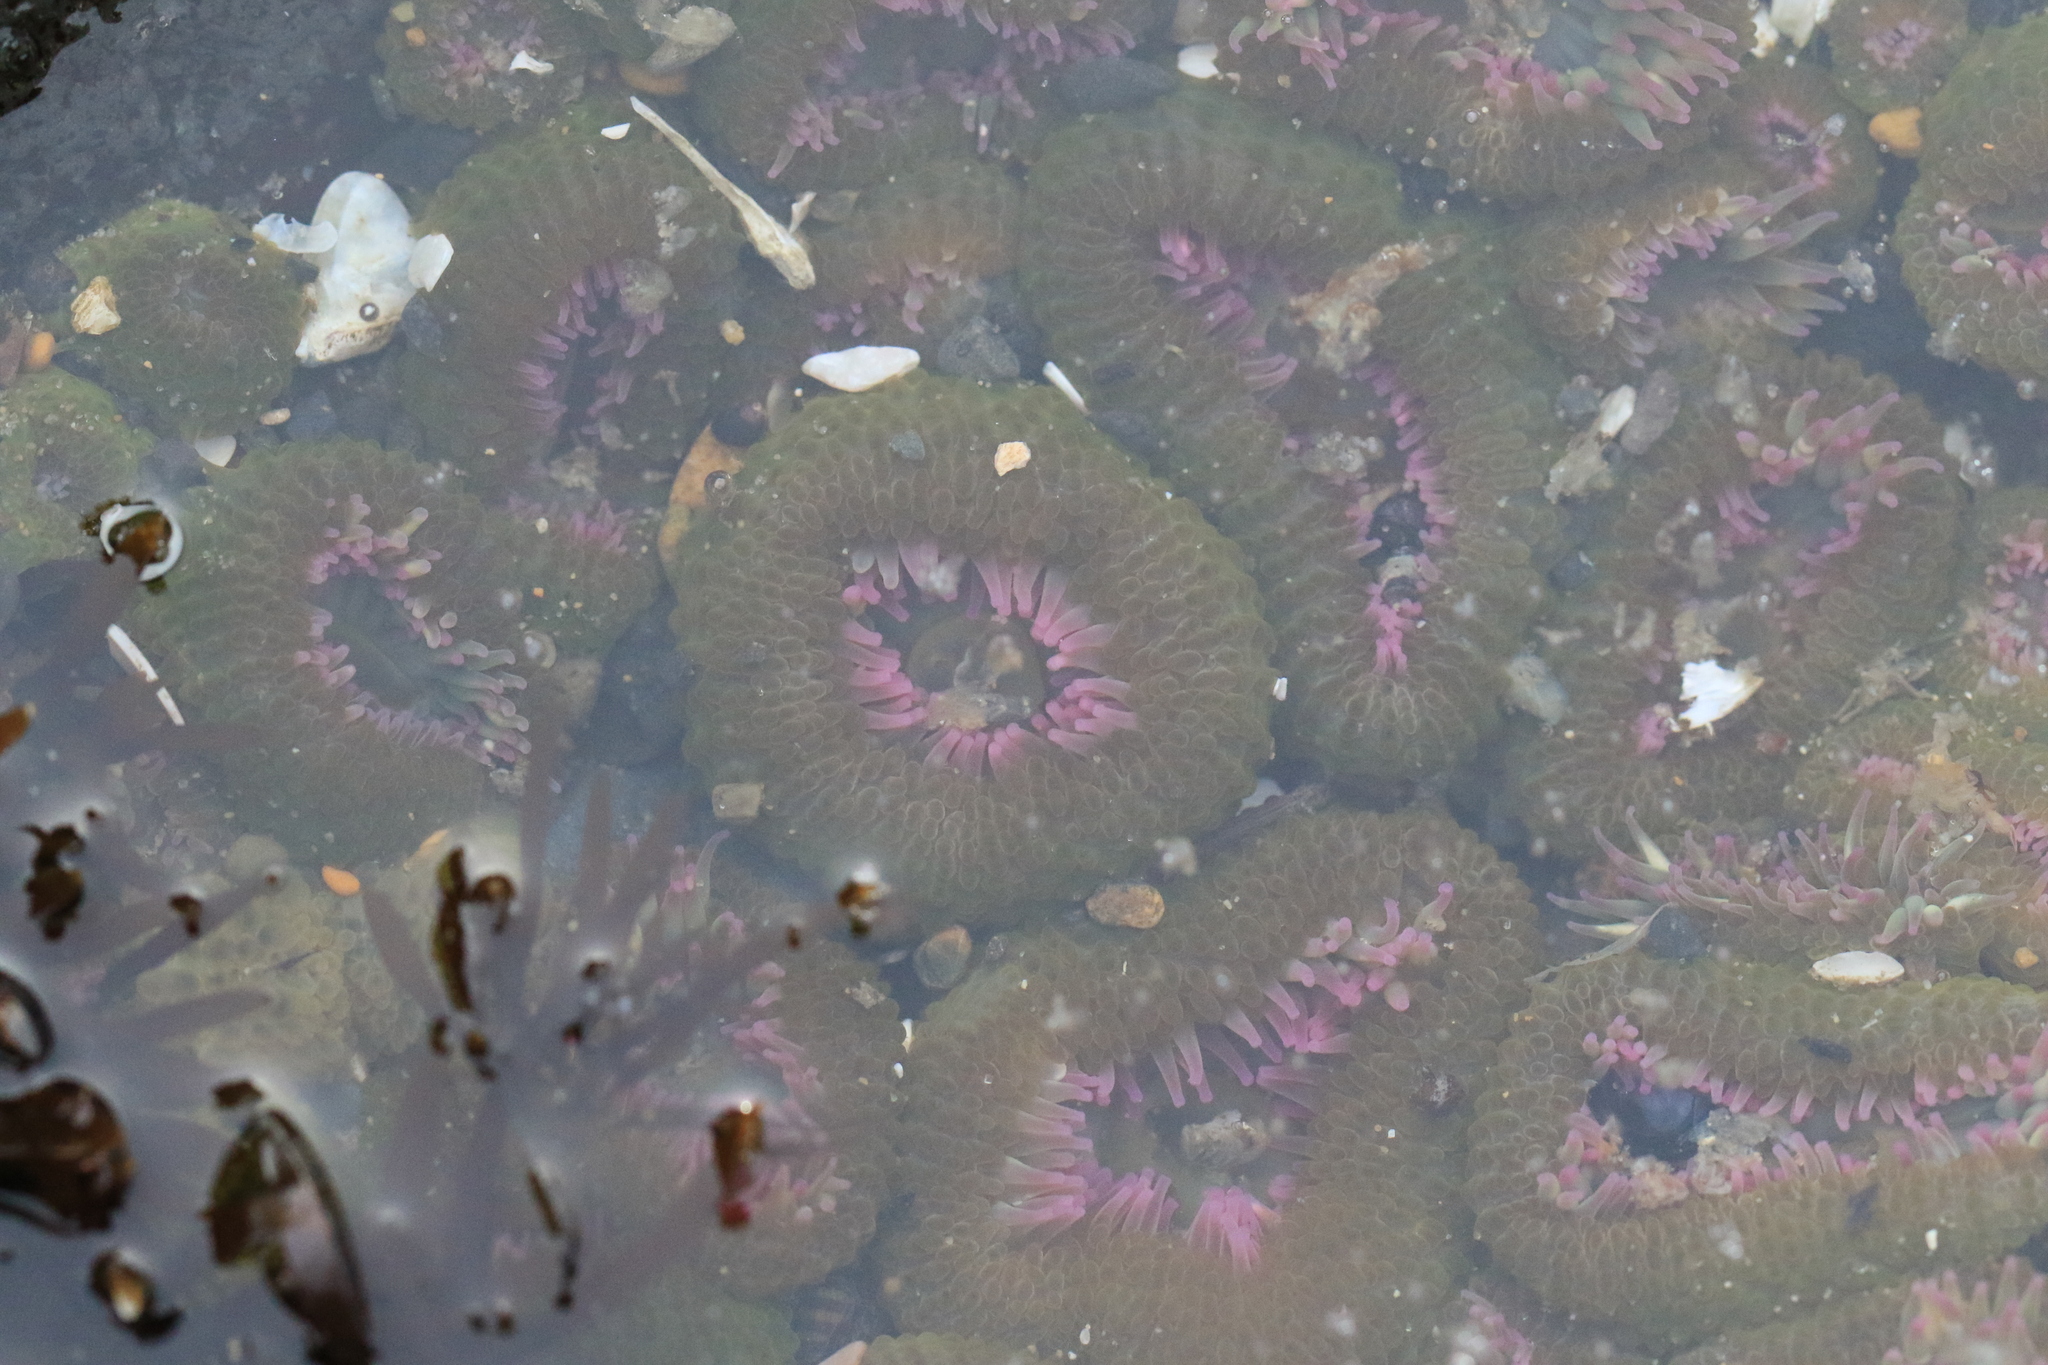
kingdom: Animalia
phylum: Cnidaria
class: Anthozoa
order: Actiniaria
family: Actiniidae
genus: Anthopleura
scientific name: Anthopleura elegantissima
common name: Clonal anemone
